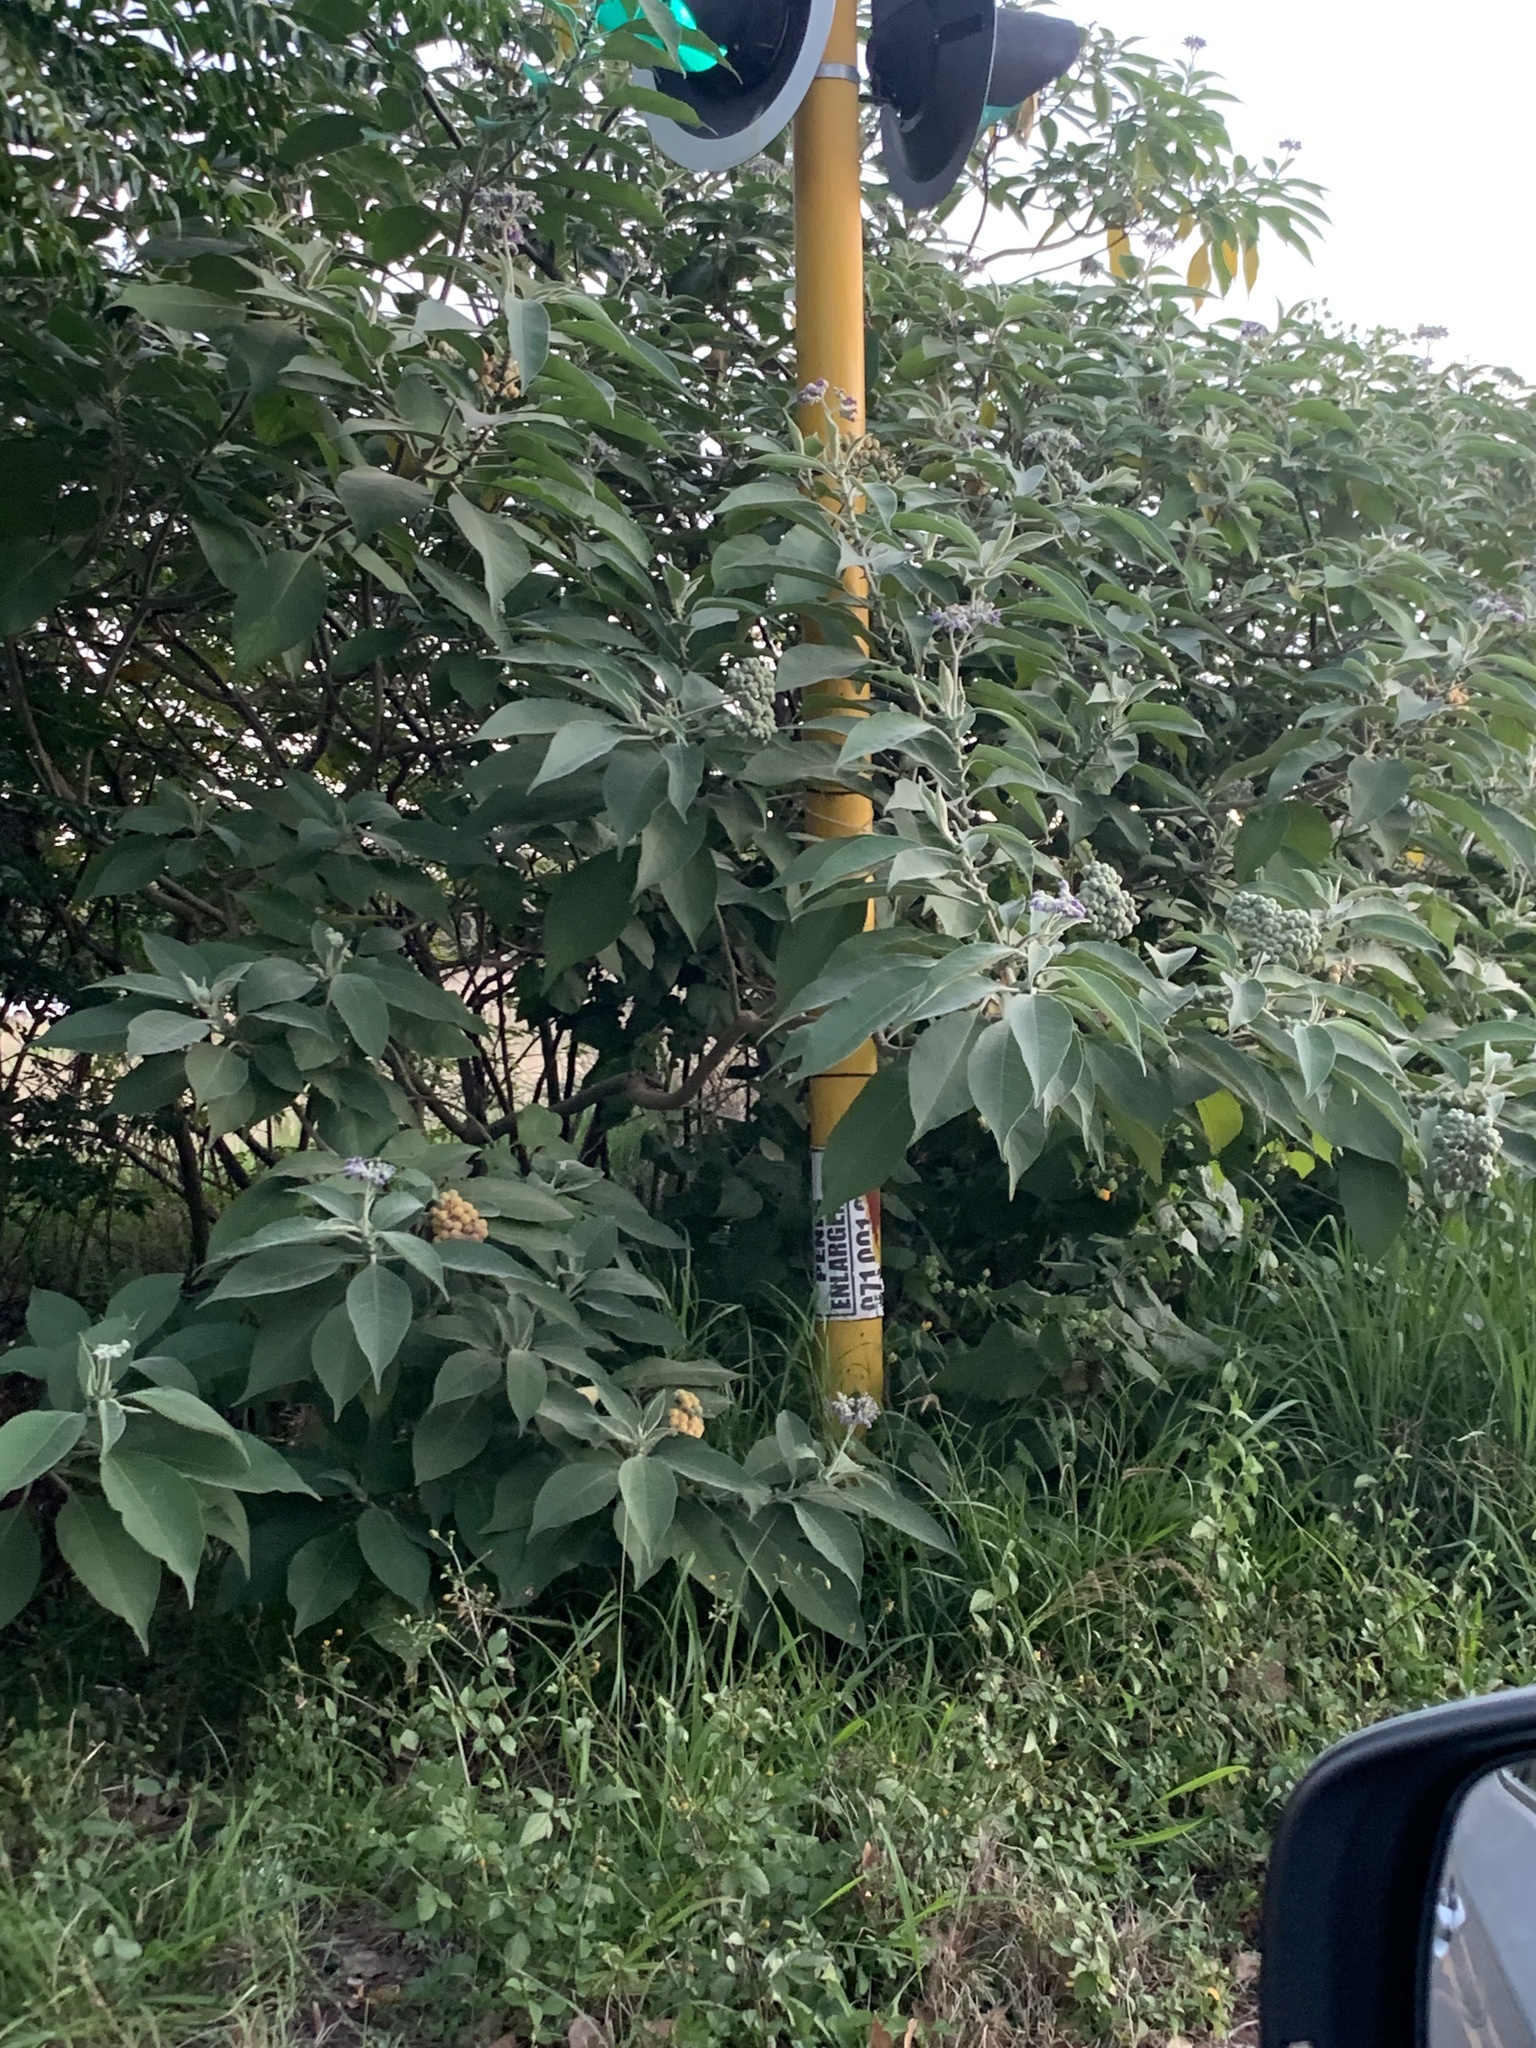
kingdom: Plantae
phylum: Tracheophyta
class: Magnoliopsida
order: Solanales
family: Solanaceae
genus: Solanum
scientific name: Solanum mauritianum
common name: Earleaf nightshade
